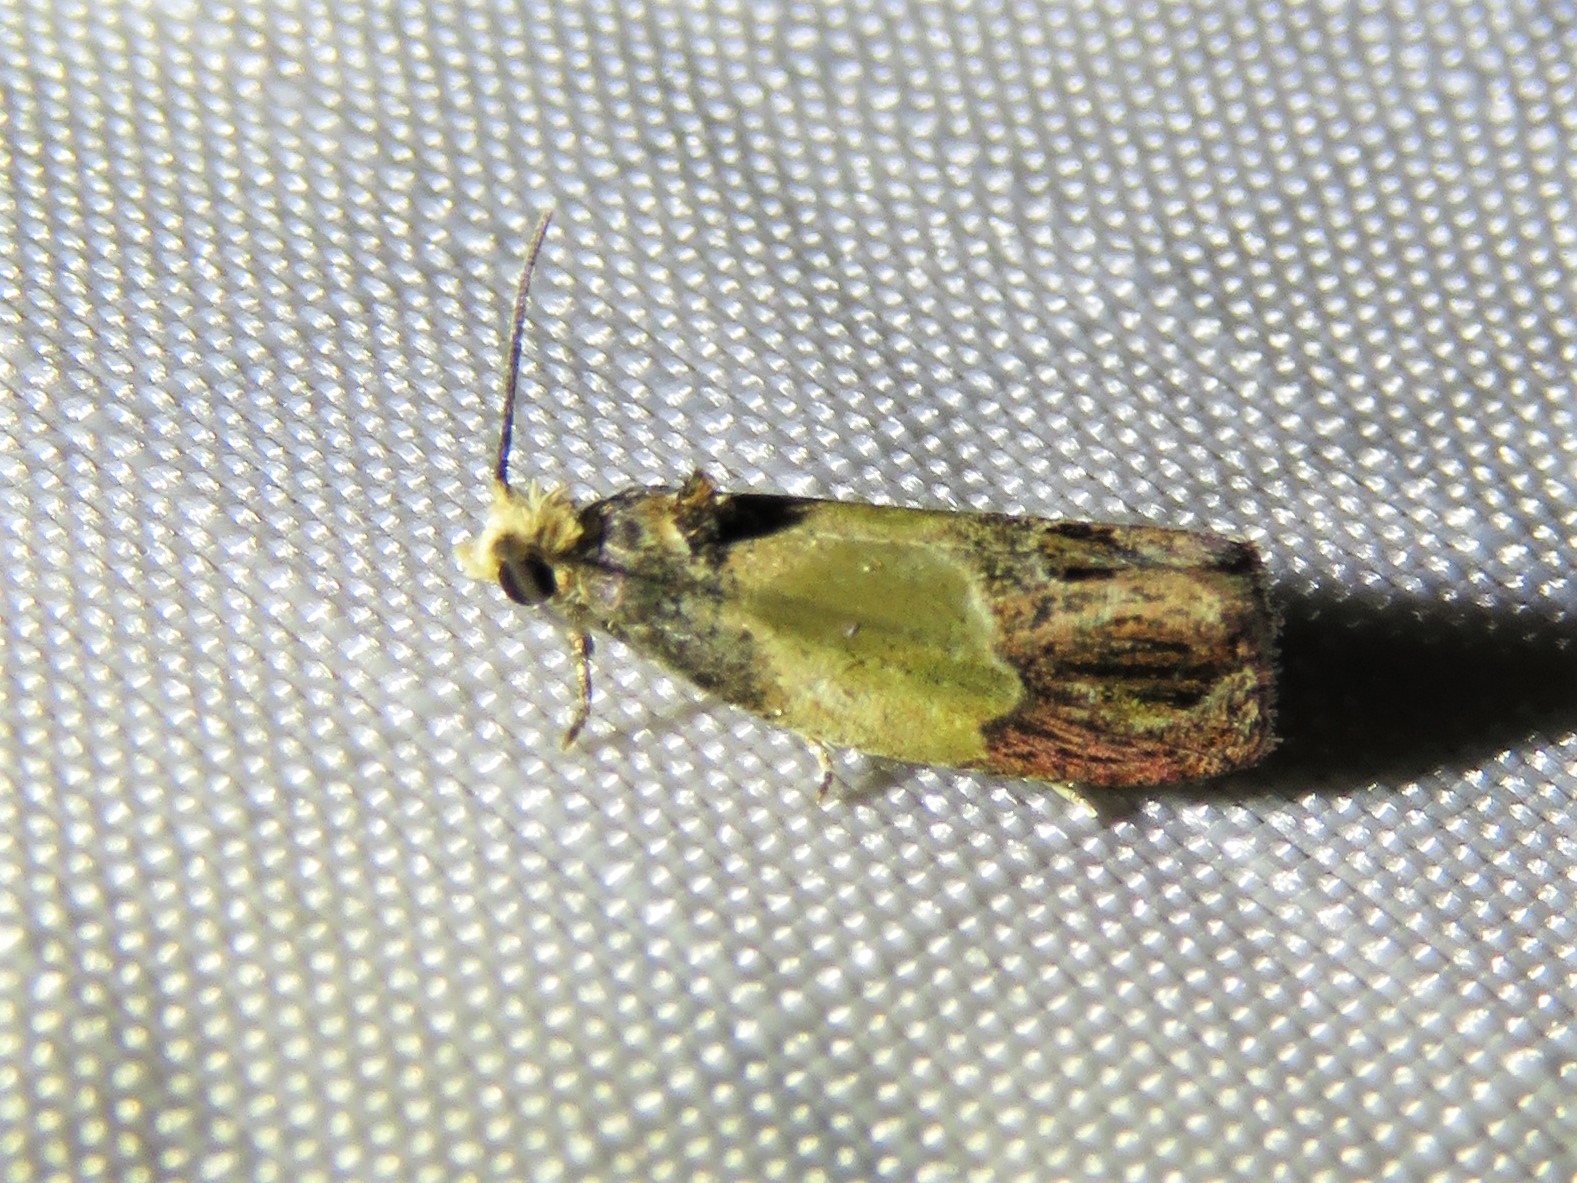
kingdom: Animalia
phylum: Arthropoda
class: Insecta
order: Lepidoptera
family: Tortricidae
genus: Eumarozia
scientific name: Eumarozia malachitana
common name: Sculptured moth
